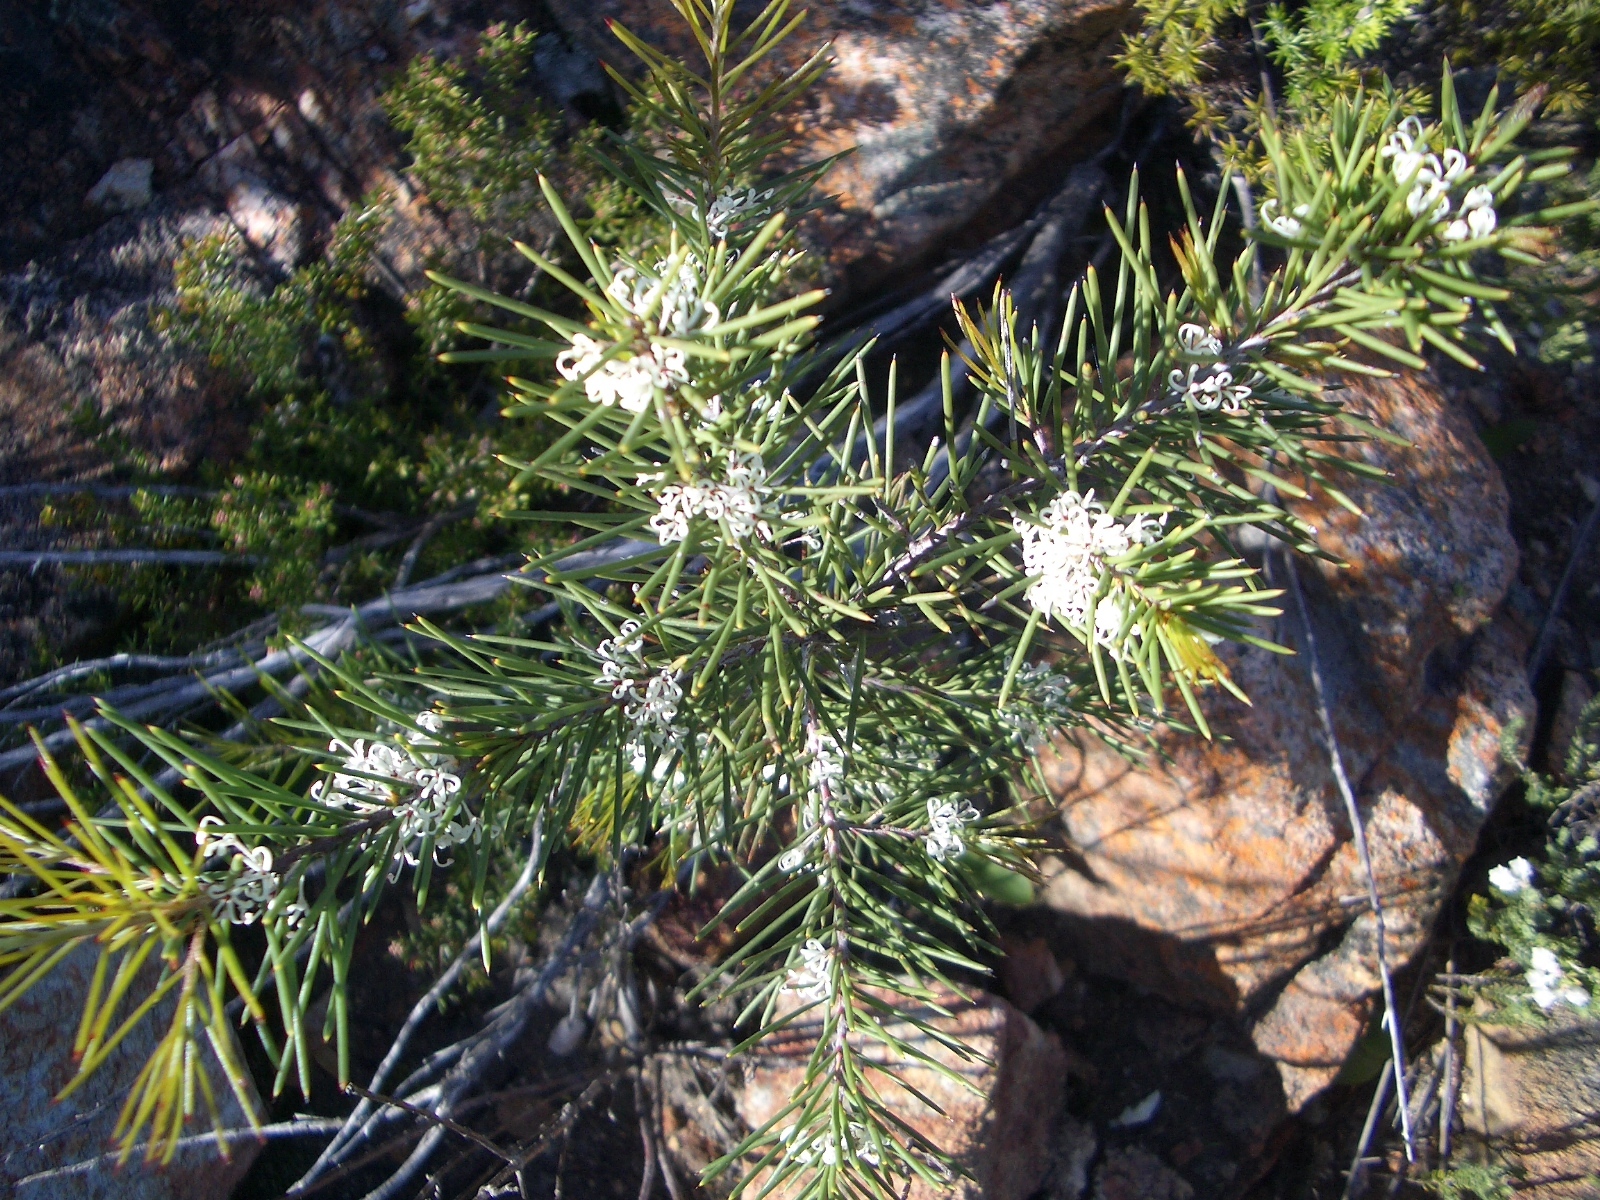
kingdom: Plantae
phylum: Tracheophyta
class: Magnoliopsida
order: Proteales
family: Proteaceae
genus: Hakea
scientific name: Hakea sericea
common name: Needle bush
